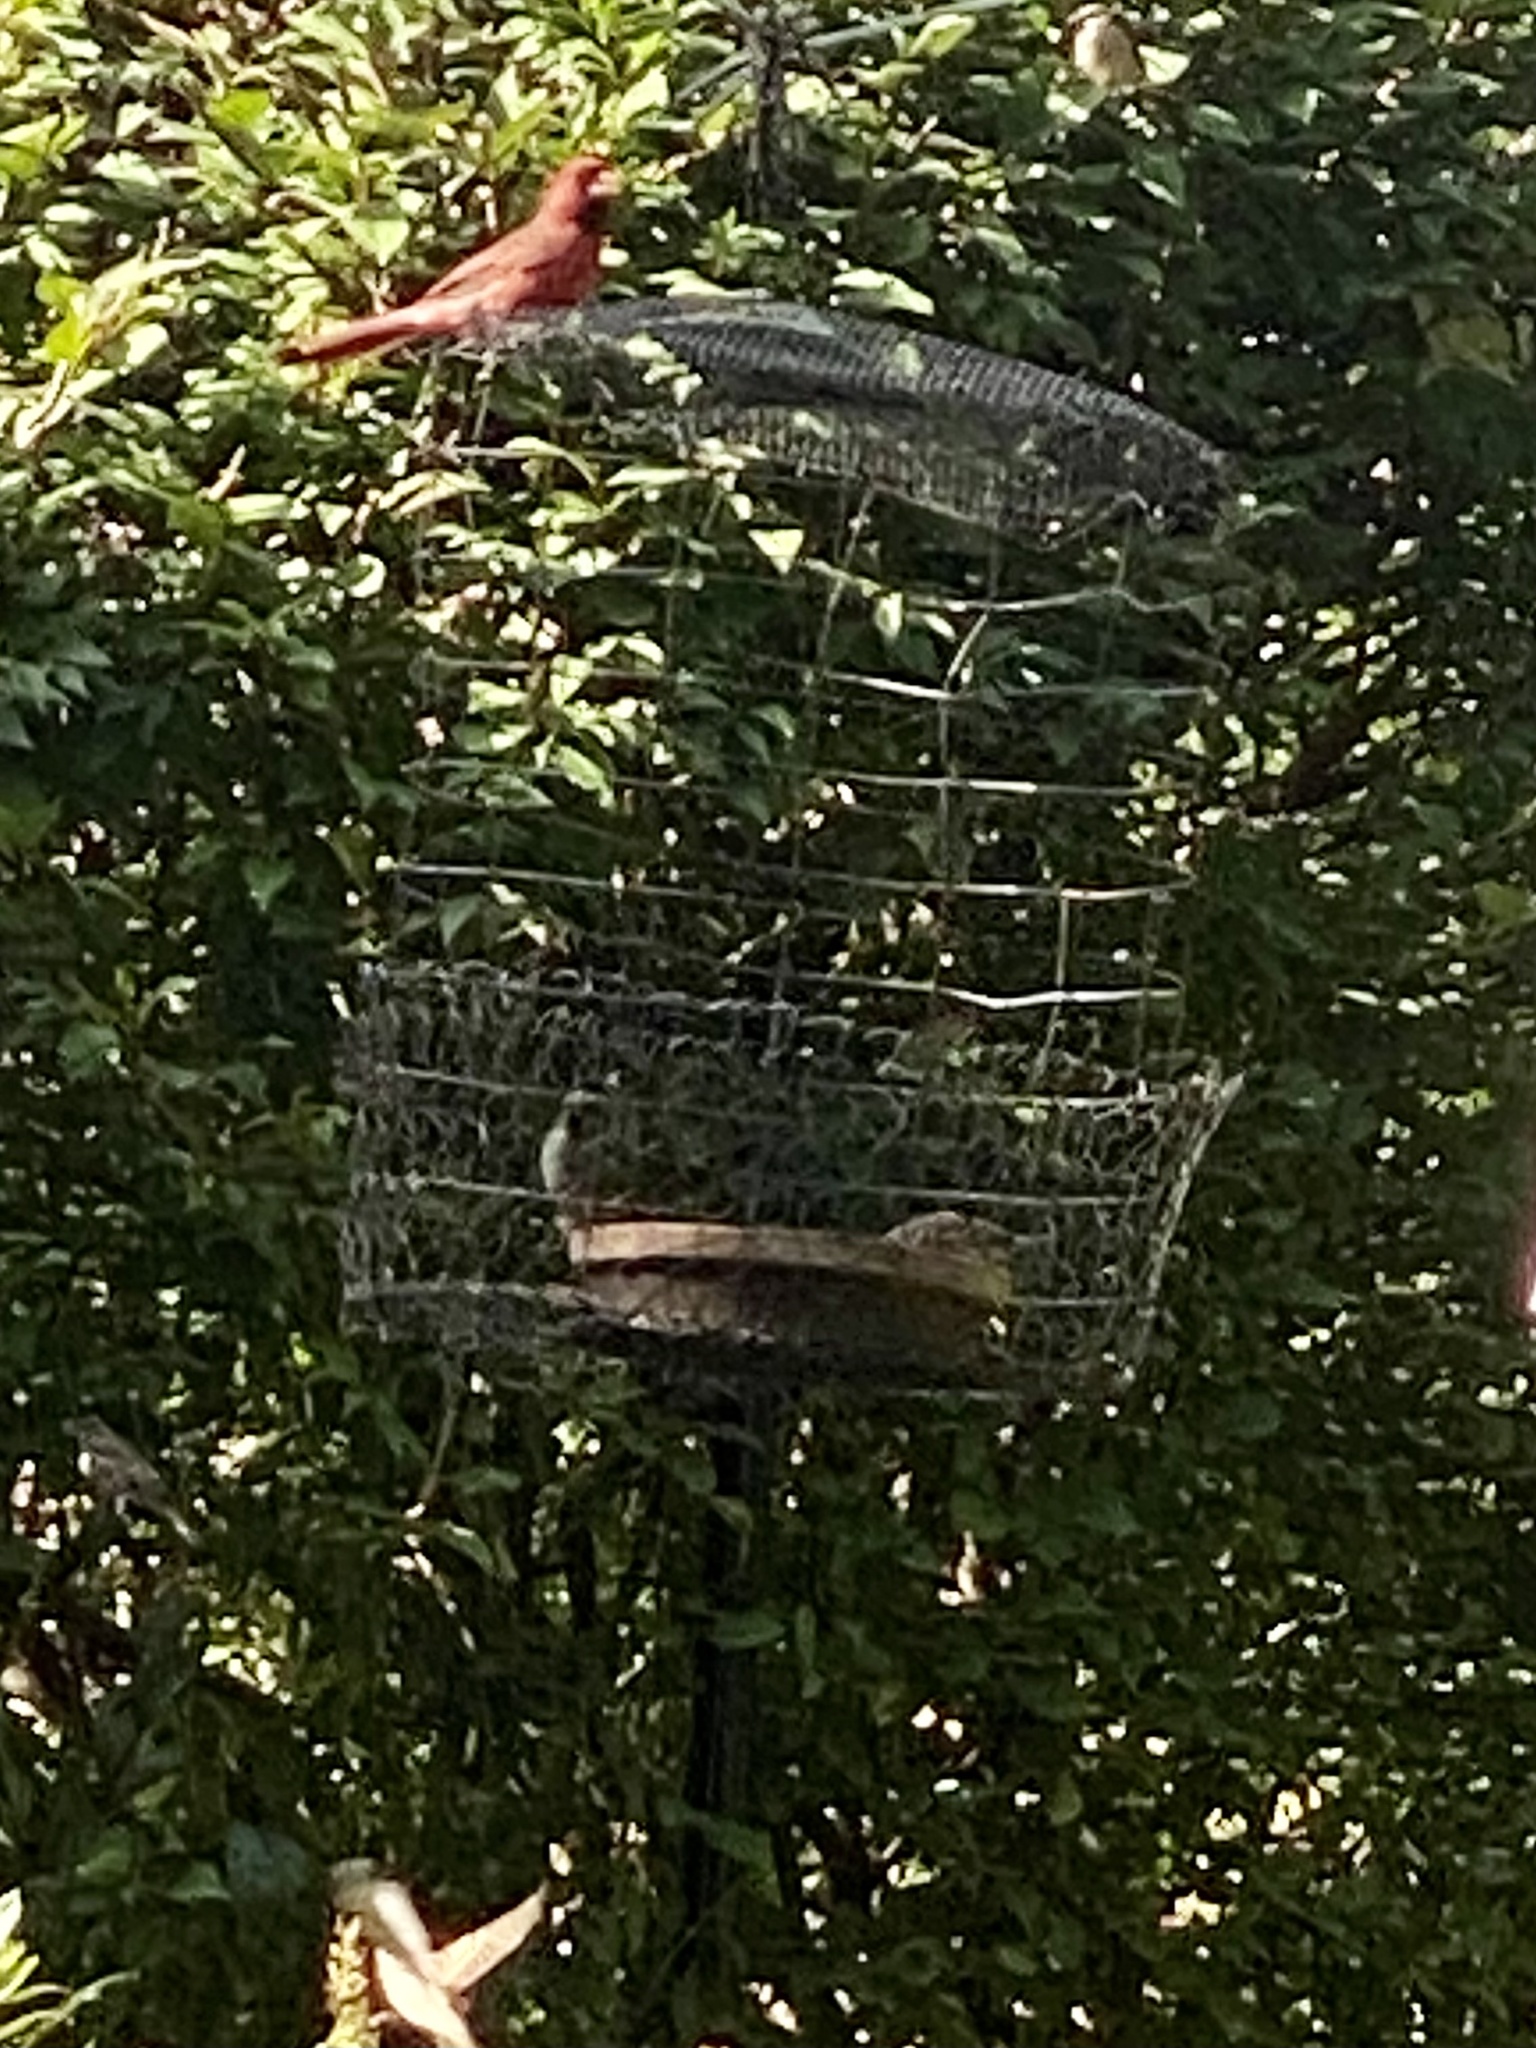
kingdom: Animalia
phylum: Chordata
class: Aves
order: Passeriformes
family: Cardinalidae
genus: Cardinalis
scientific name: Cardinalis cardinalis
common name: Northern cardinal
